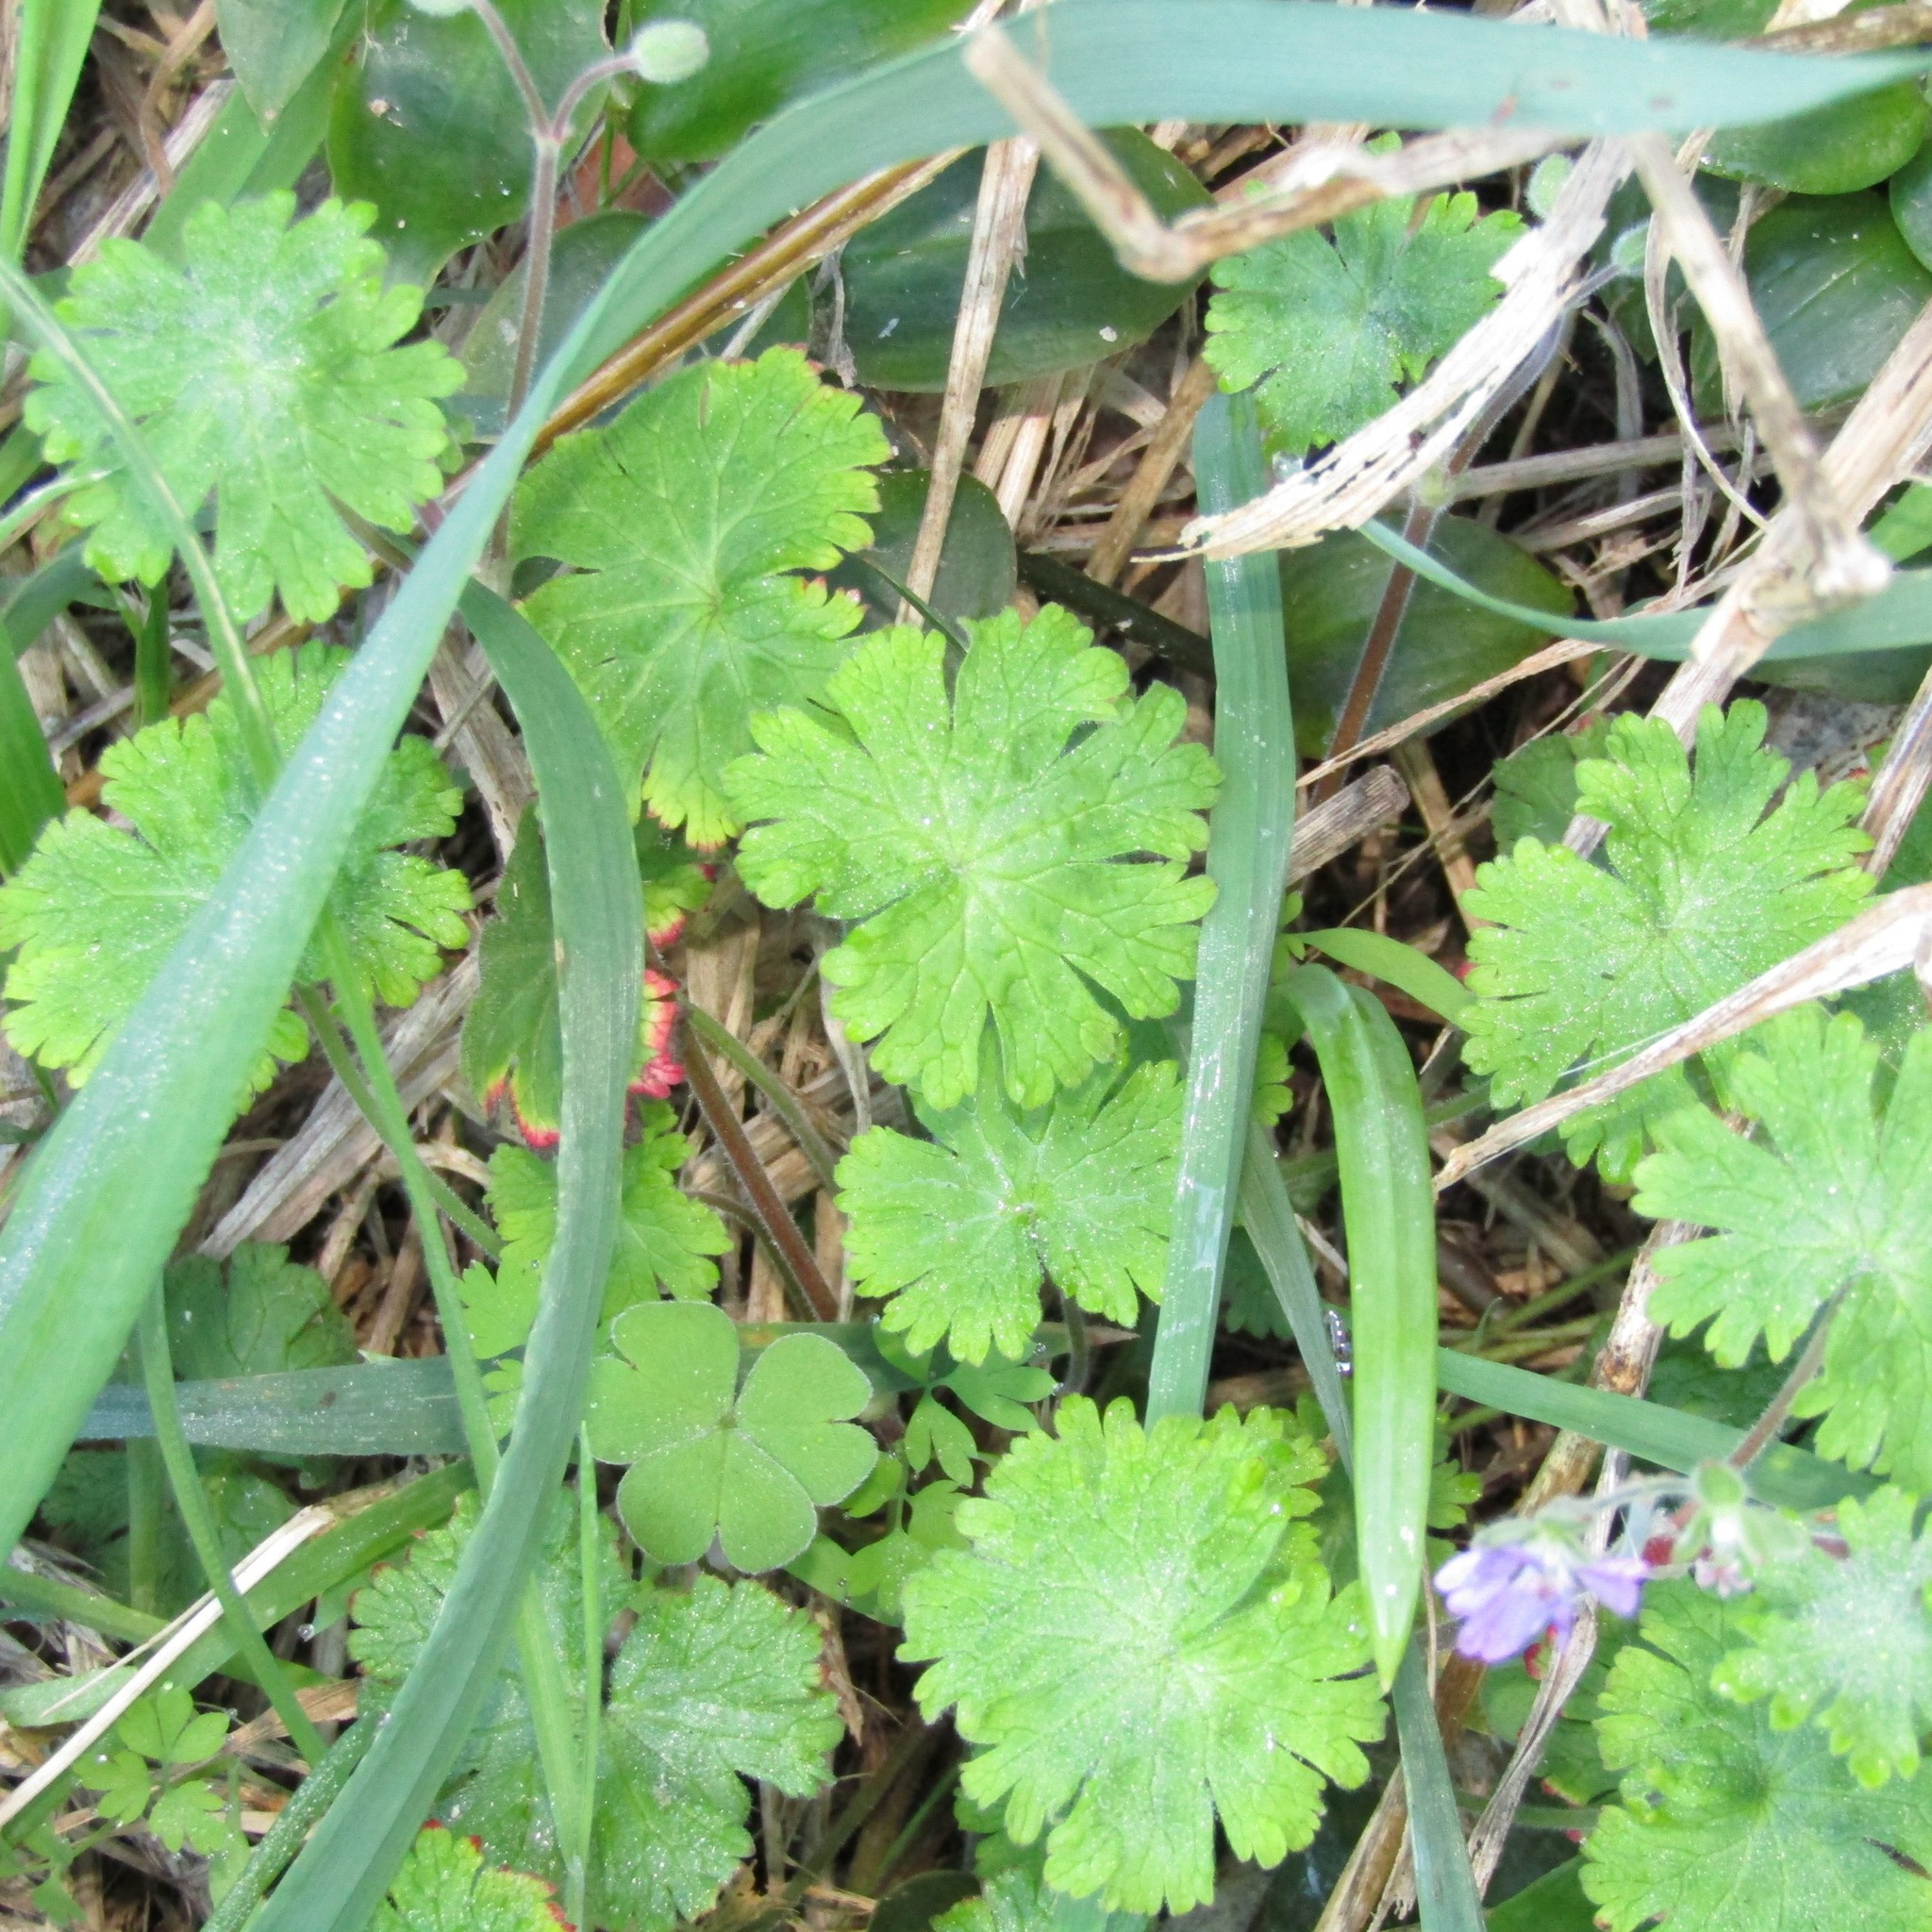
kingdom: Plantae
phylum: Tracheophyta
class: Magnoliopsida
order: Geraniales
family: Geraniaceae
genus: Geranium
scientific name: Geranium molle
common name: Dove's-foot crane's-bill
